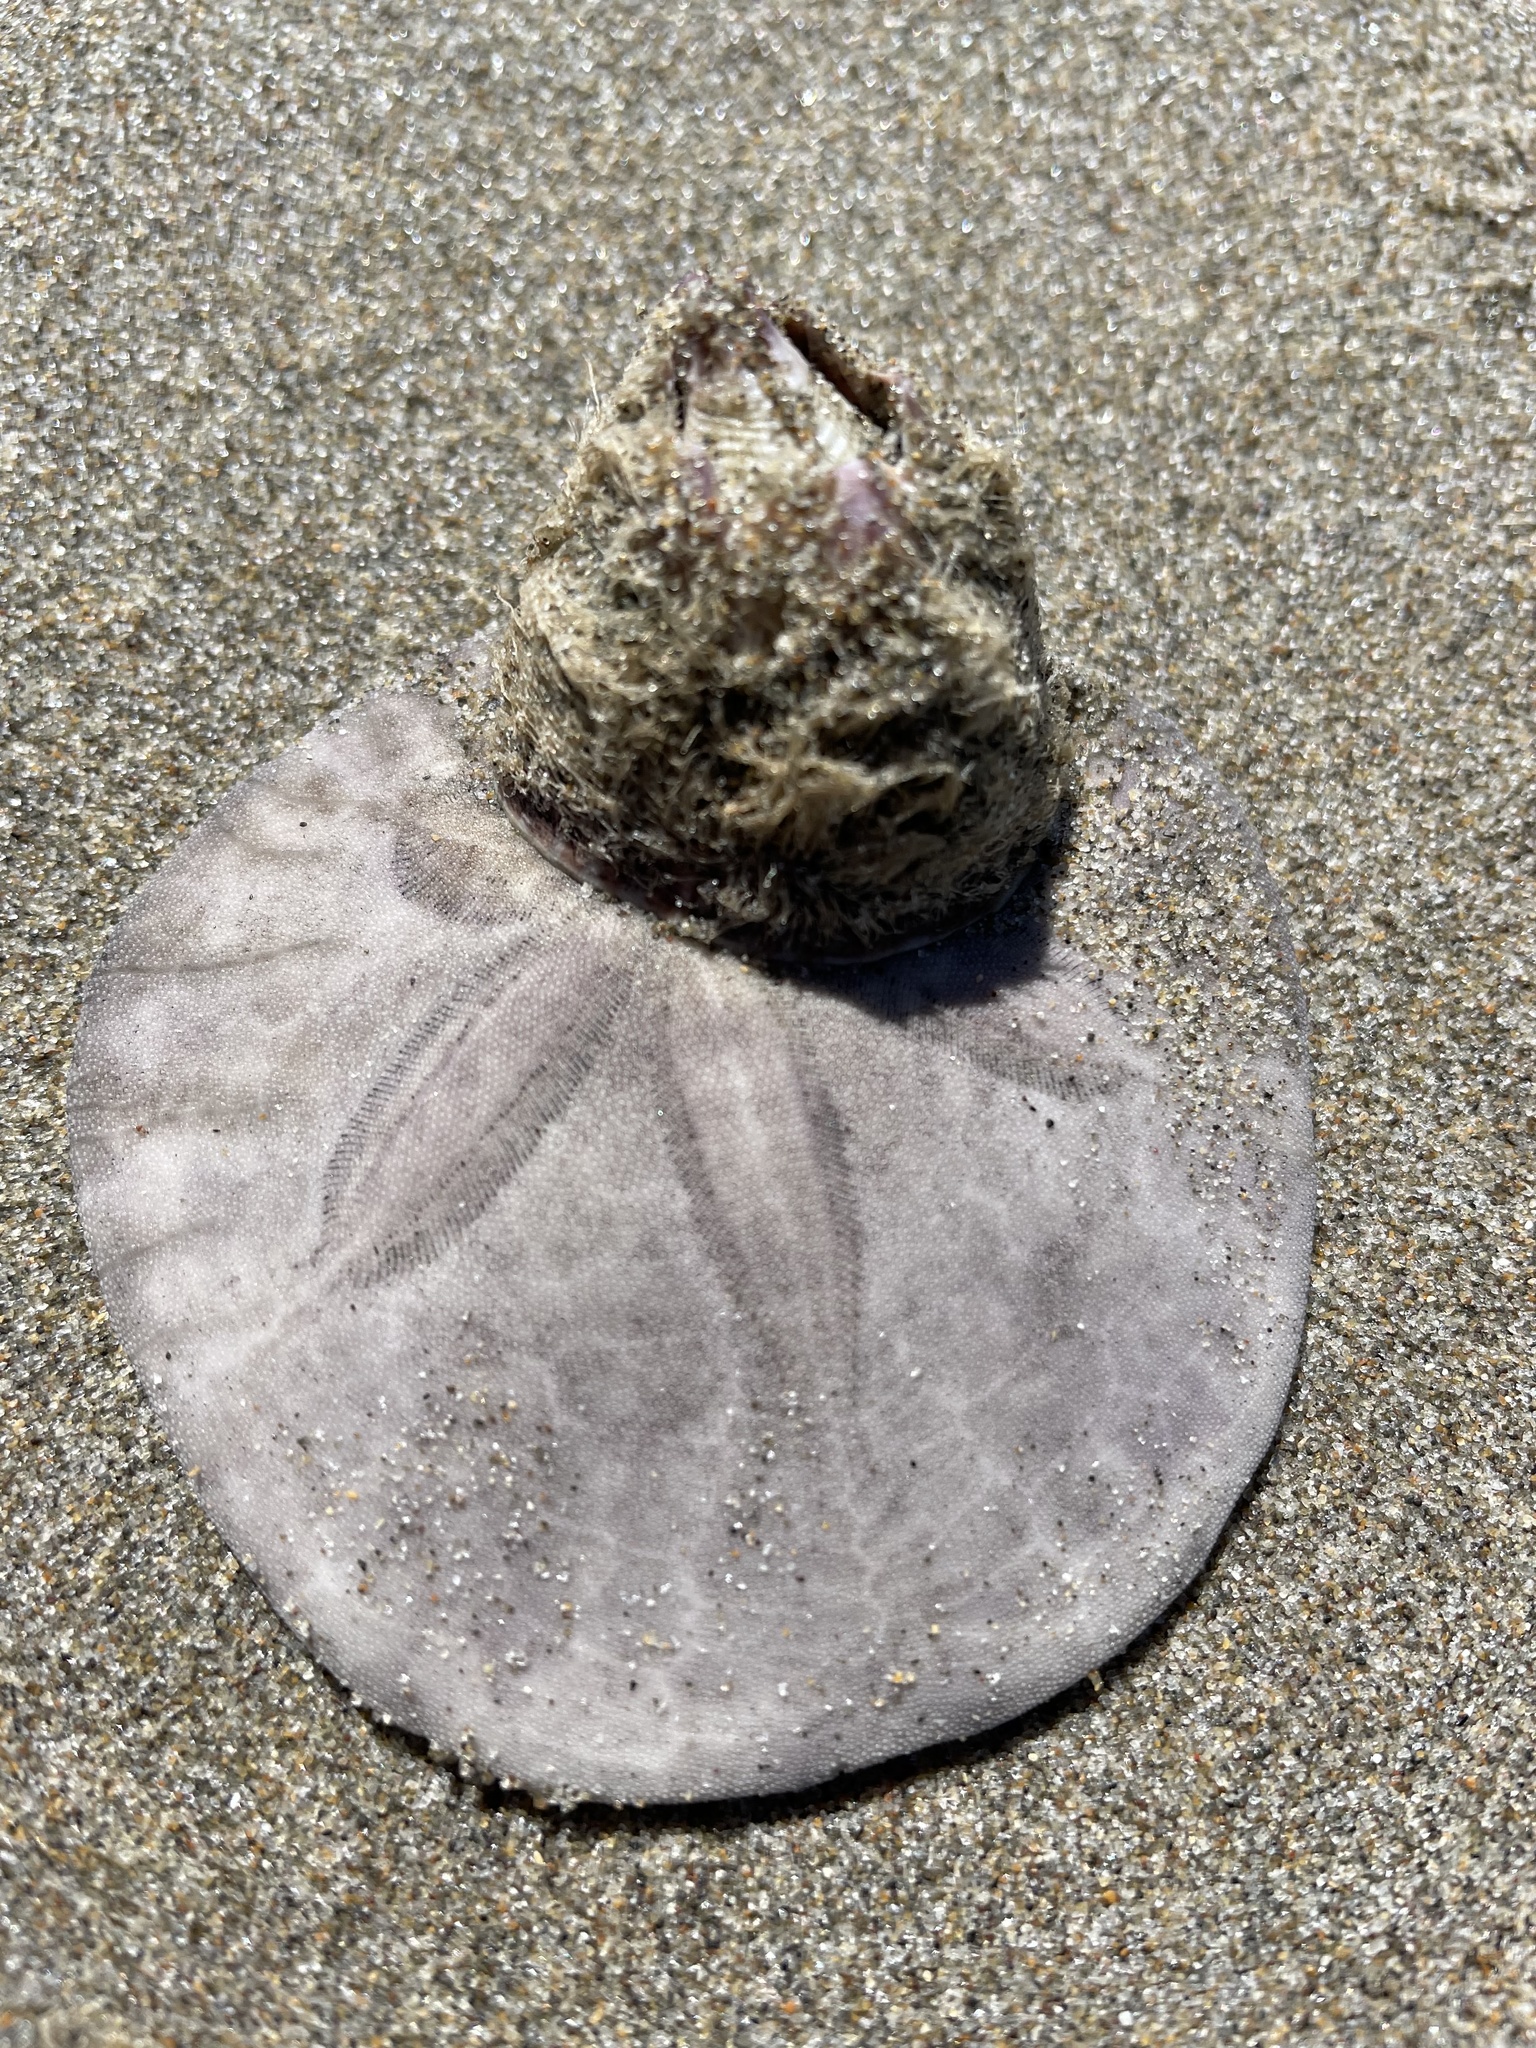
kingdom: Animalia
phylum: Arthropoda
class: Maxillopoda
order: Sessilia
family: Balanidae
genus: Paraconcavus
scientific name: Paraconcavus pacificus
